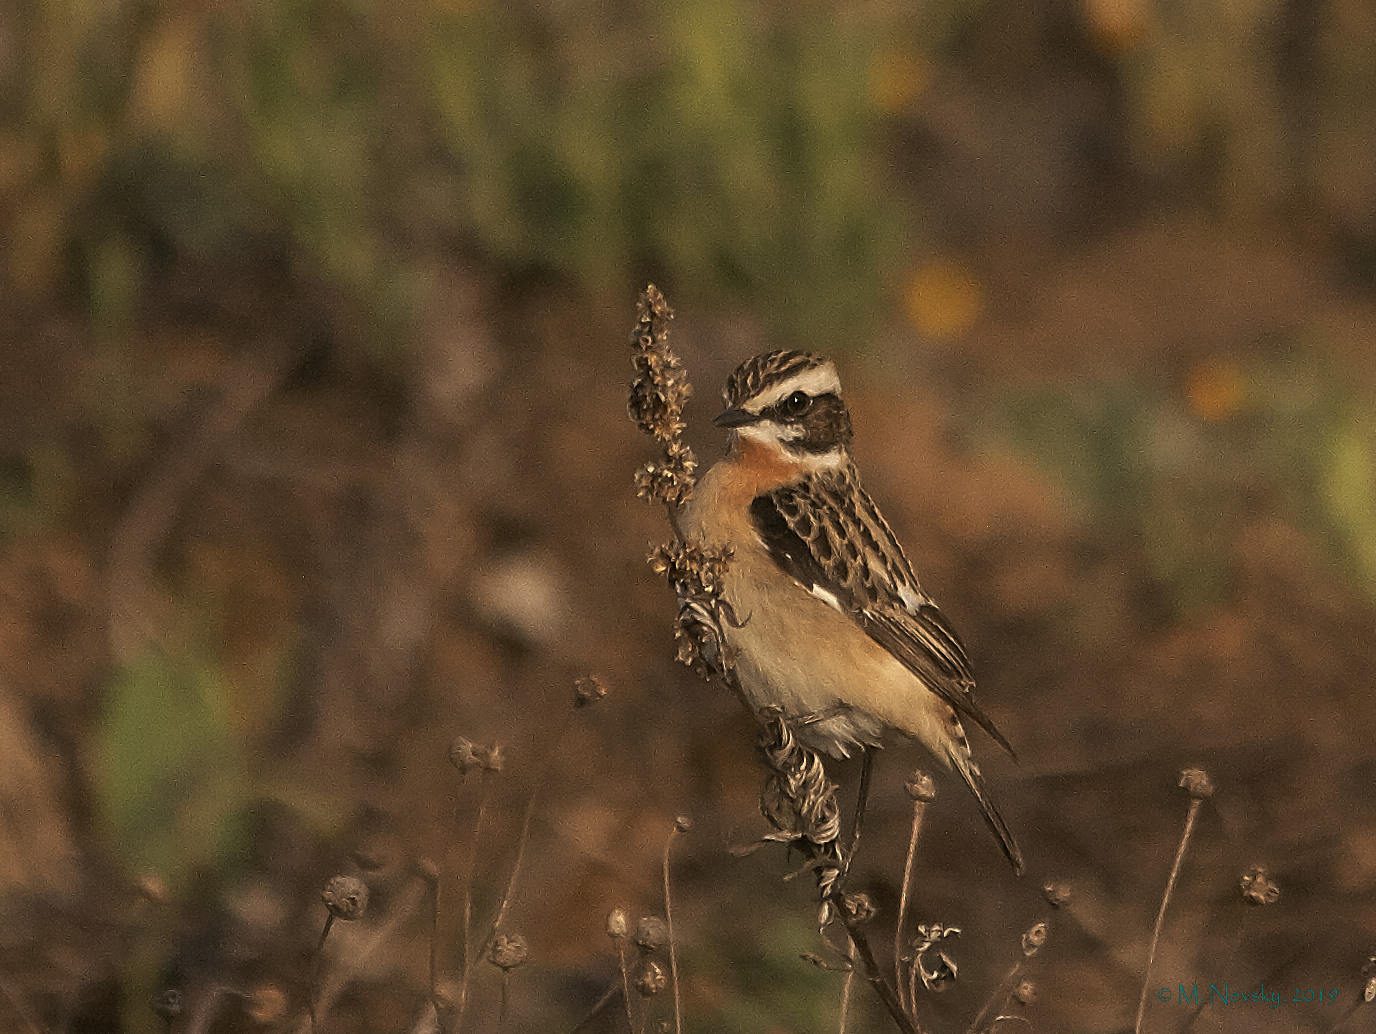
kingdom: Animalia
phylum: Chordata
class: Aves
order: Passeriformes
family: Muscicapidae
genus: Saxicola
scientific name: Saxicola rubetra
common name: Whinchat
